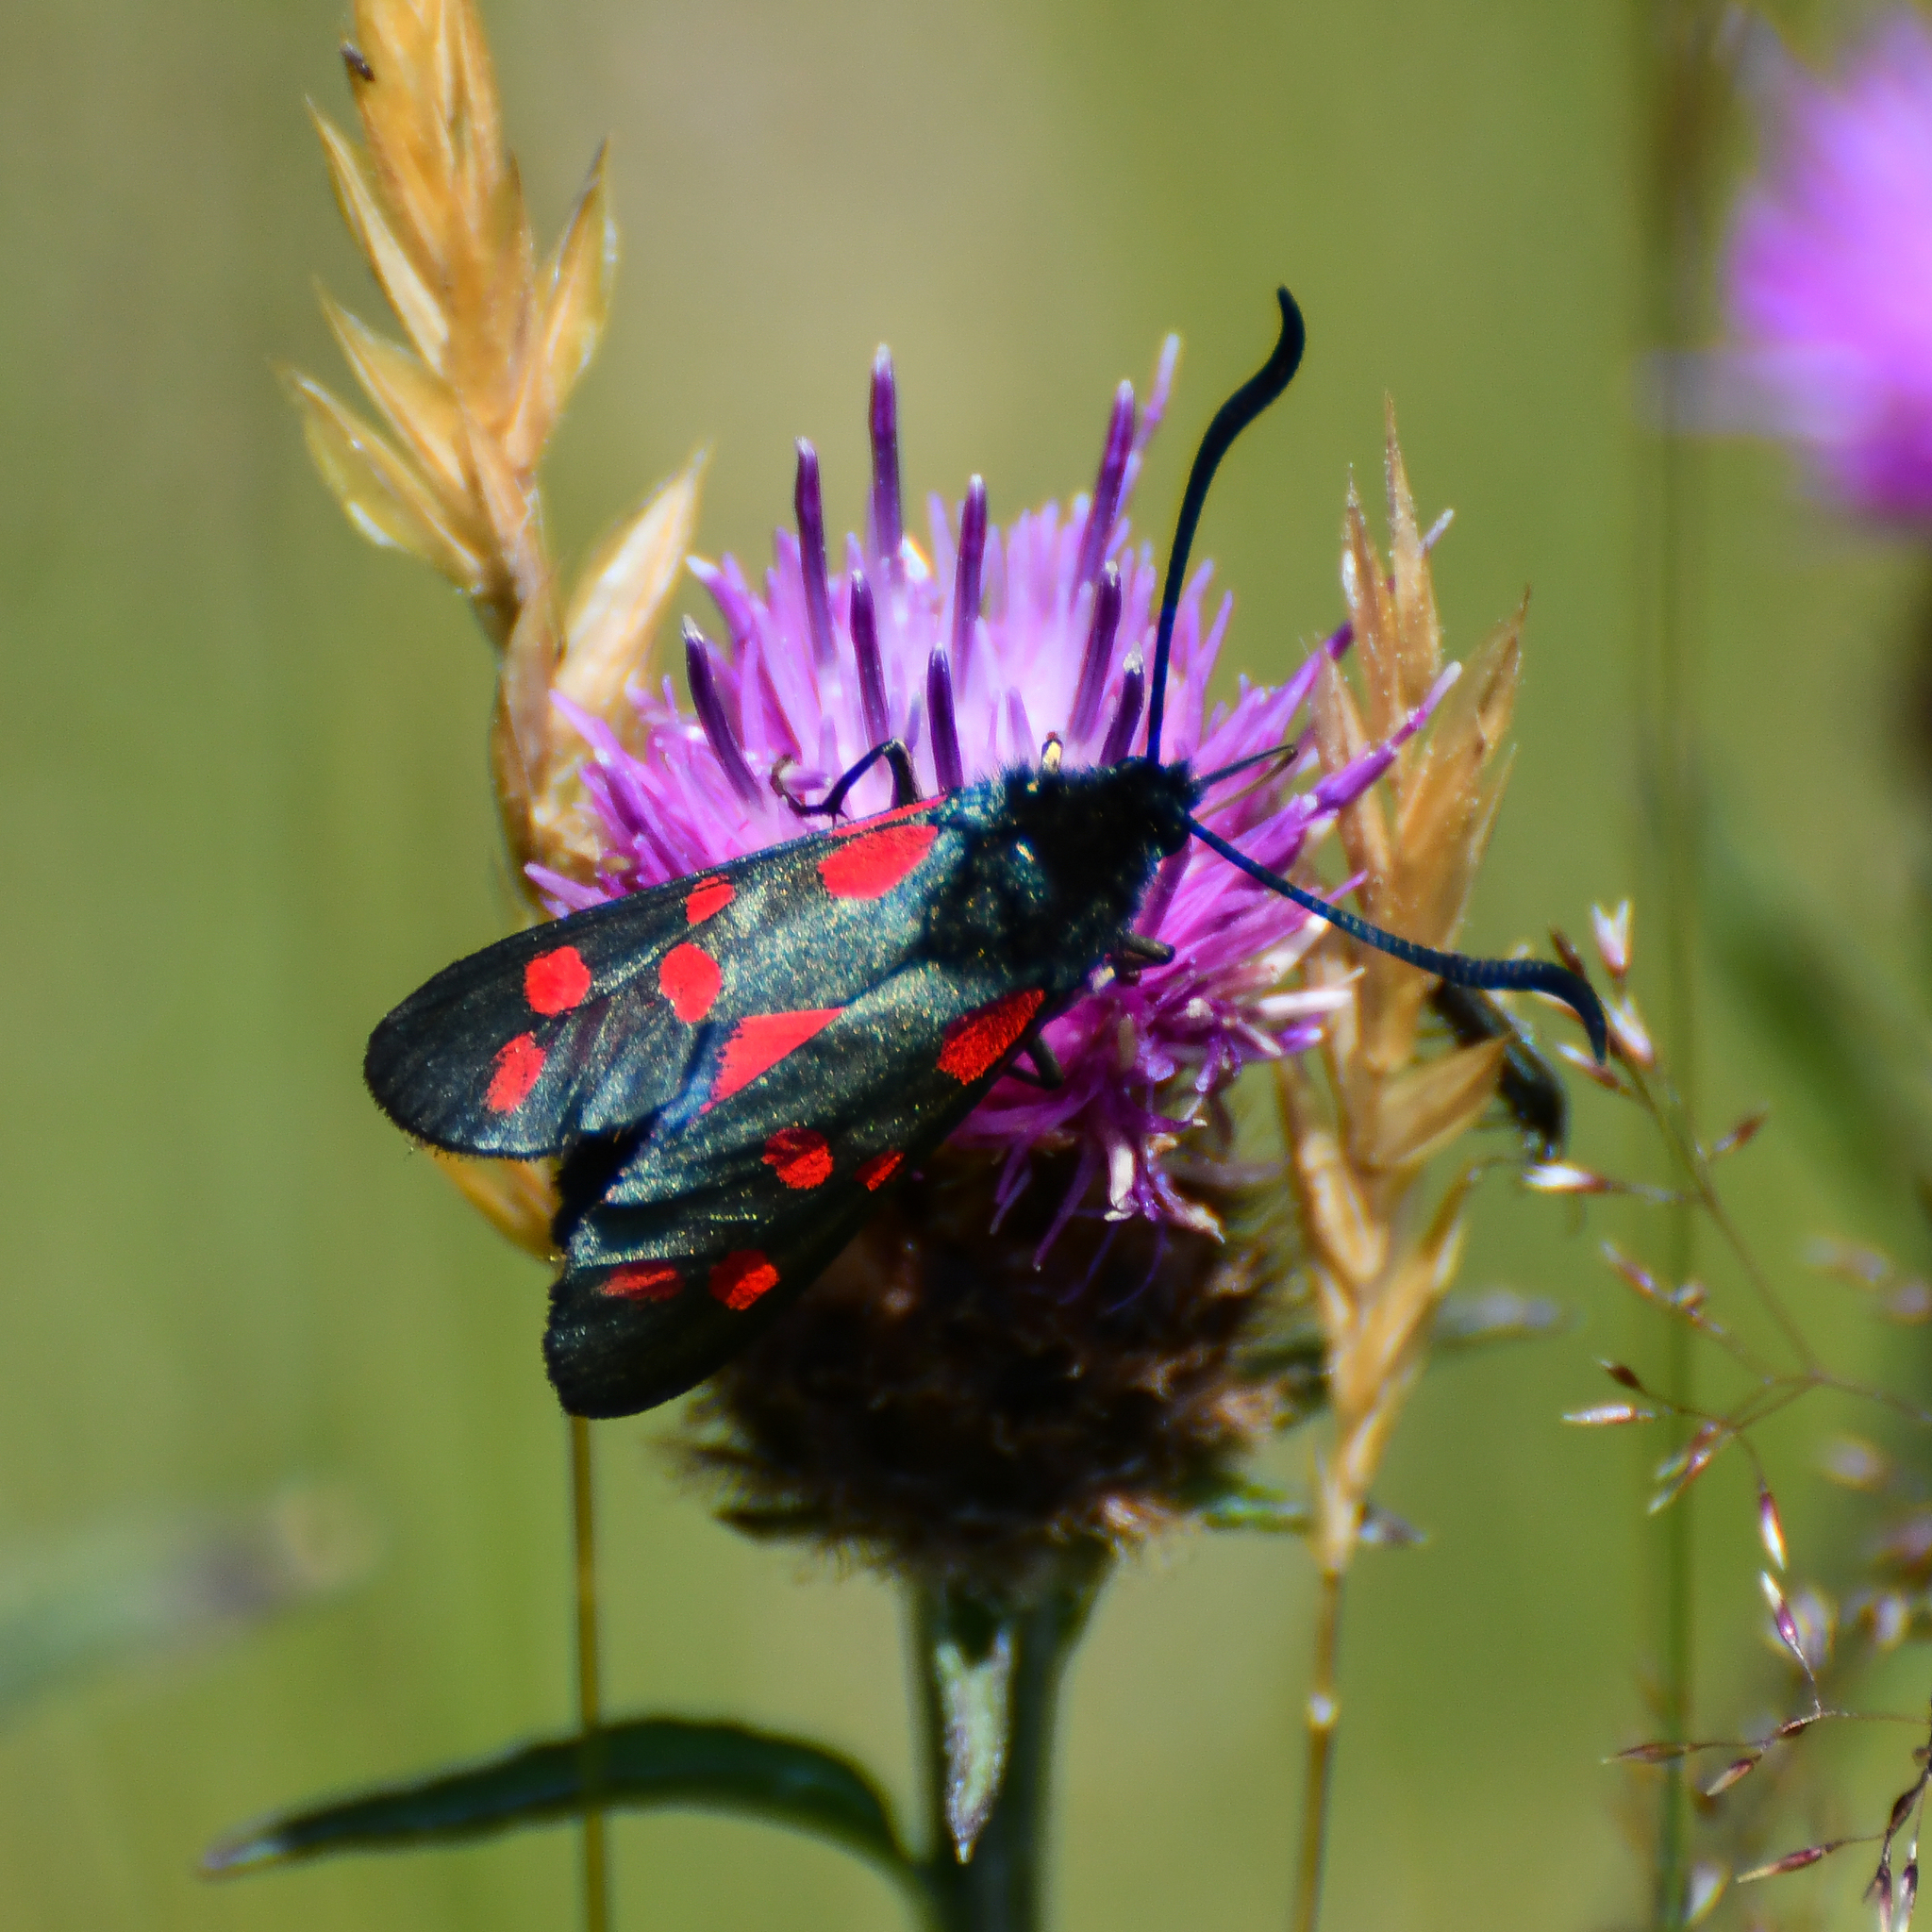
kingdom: Animalia
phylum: Arthropoda
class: Insecta
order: Lepidoptera
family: Zygaenidae
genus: Zygaena
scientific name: Zygaena filipendulae
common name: Six-spot burnet
